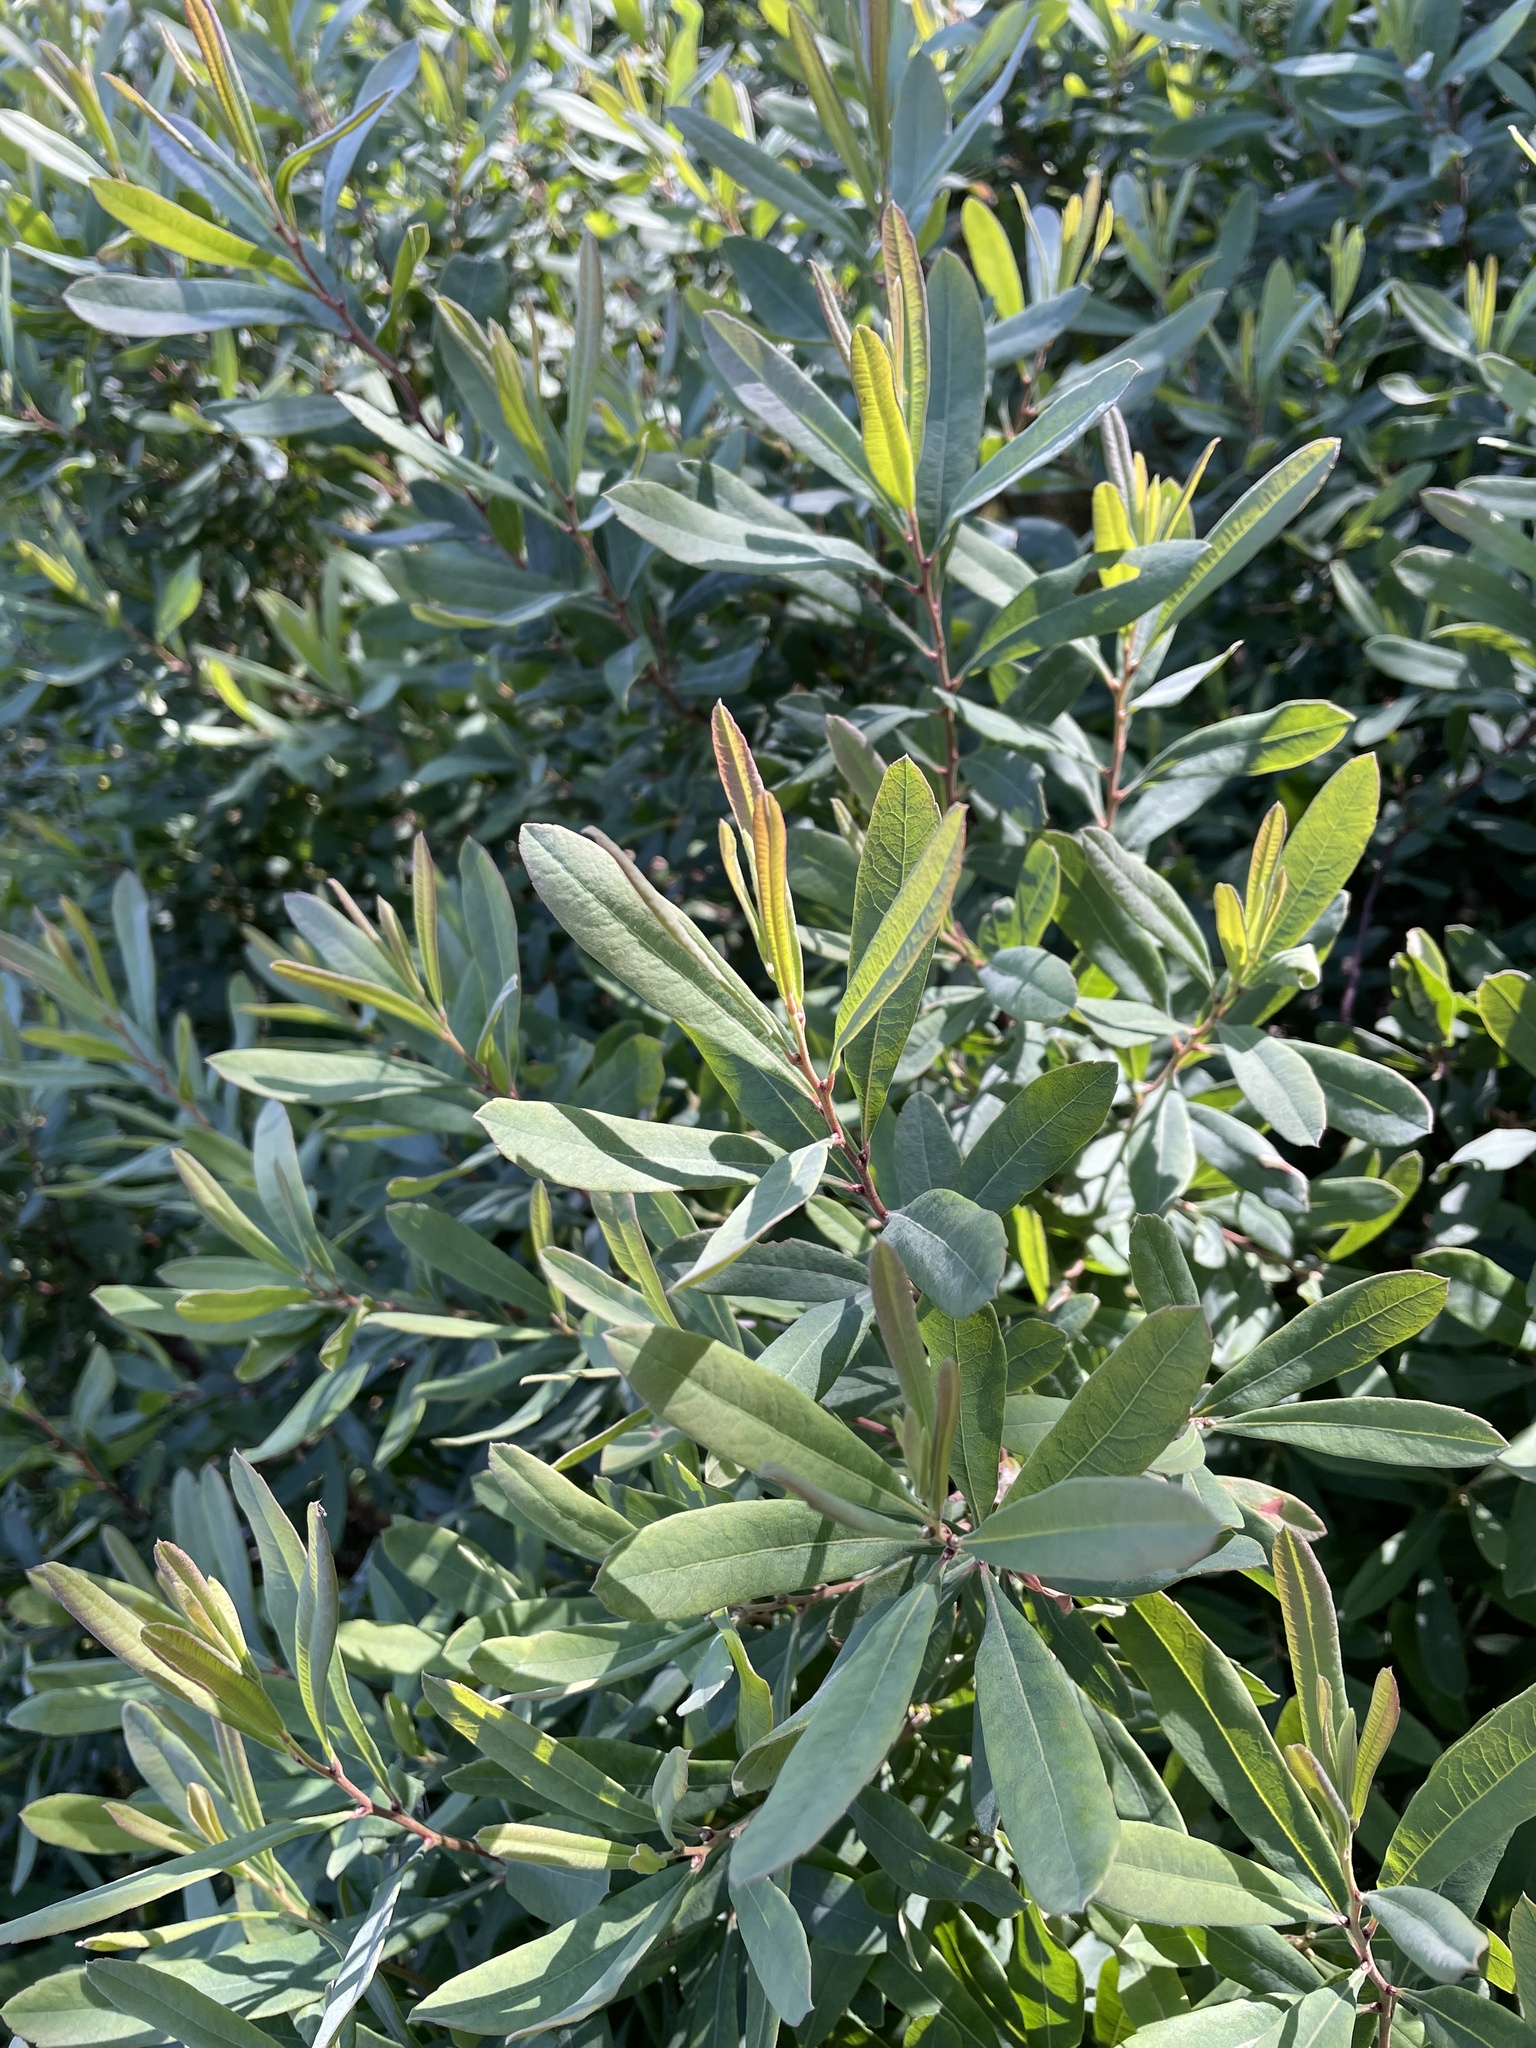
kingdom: Plantae
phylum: Tracheophyta
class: Magnoliopsida
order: Fagales
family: Myricaceae
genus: Myrica
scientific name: Myrica gale
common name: Sweet gale
